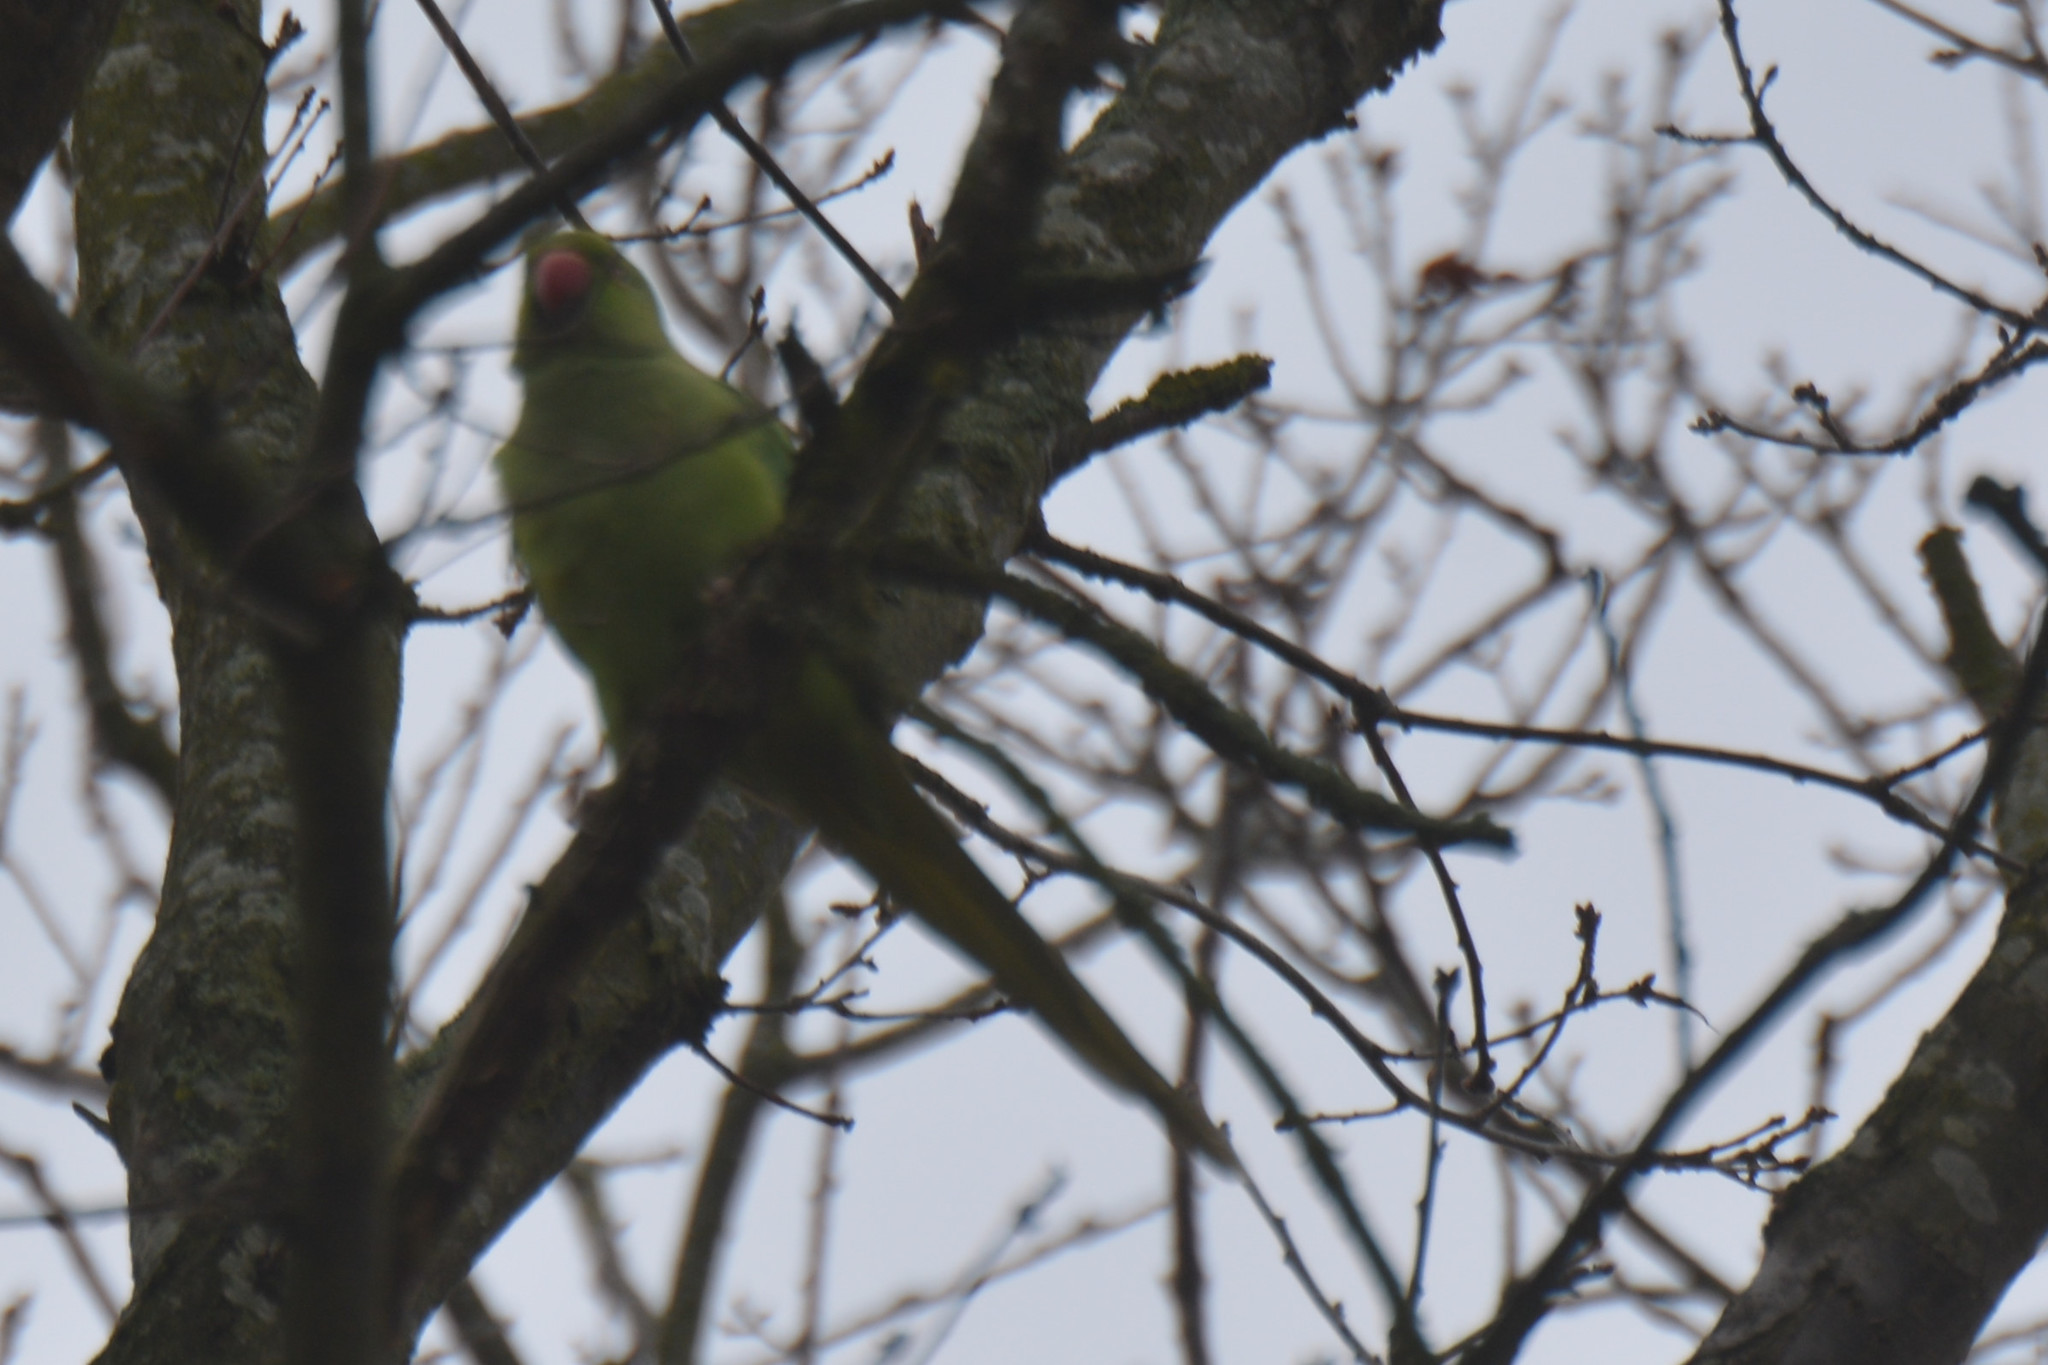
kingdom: Animalia
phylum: Chordata
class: Aves
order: Psittaciformes
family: Psittacidae
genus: Psittacula
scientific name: Psittacula krameri
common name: Rose-ringed parakeet
